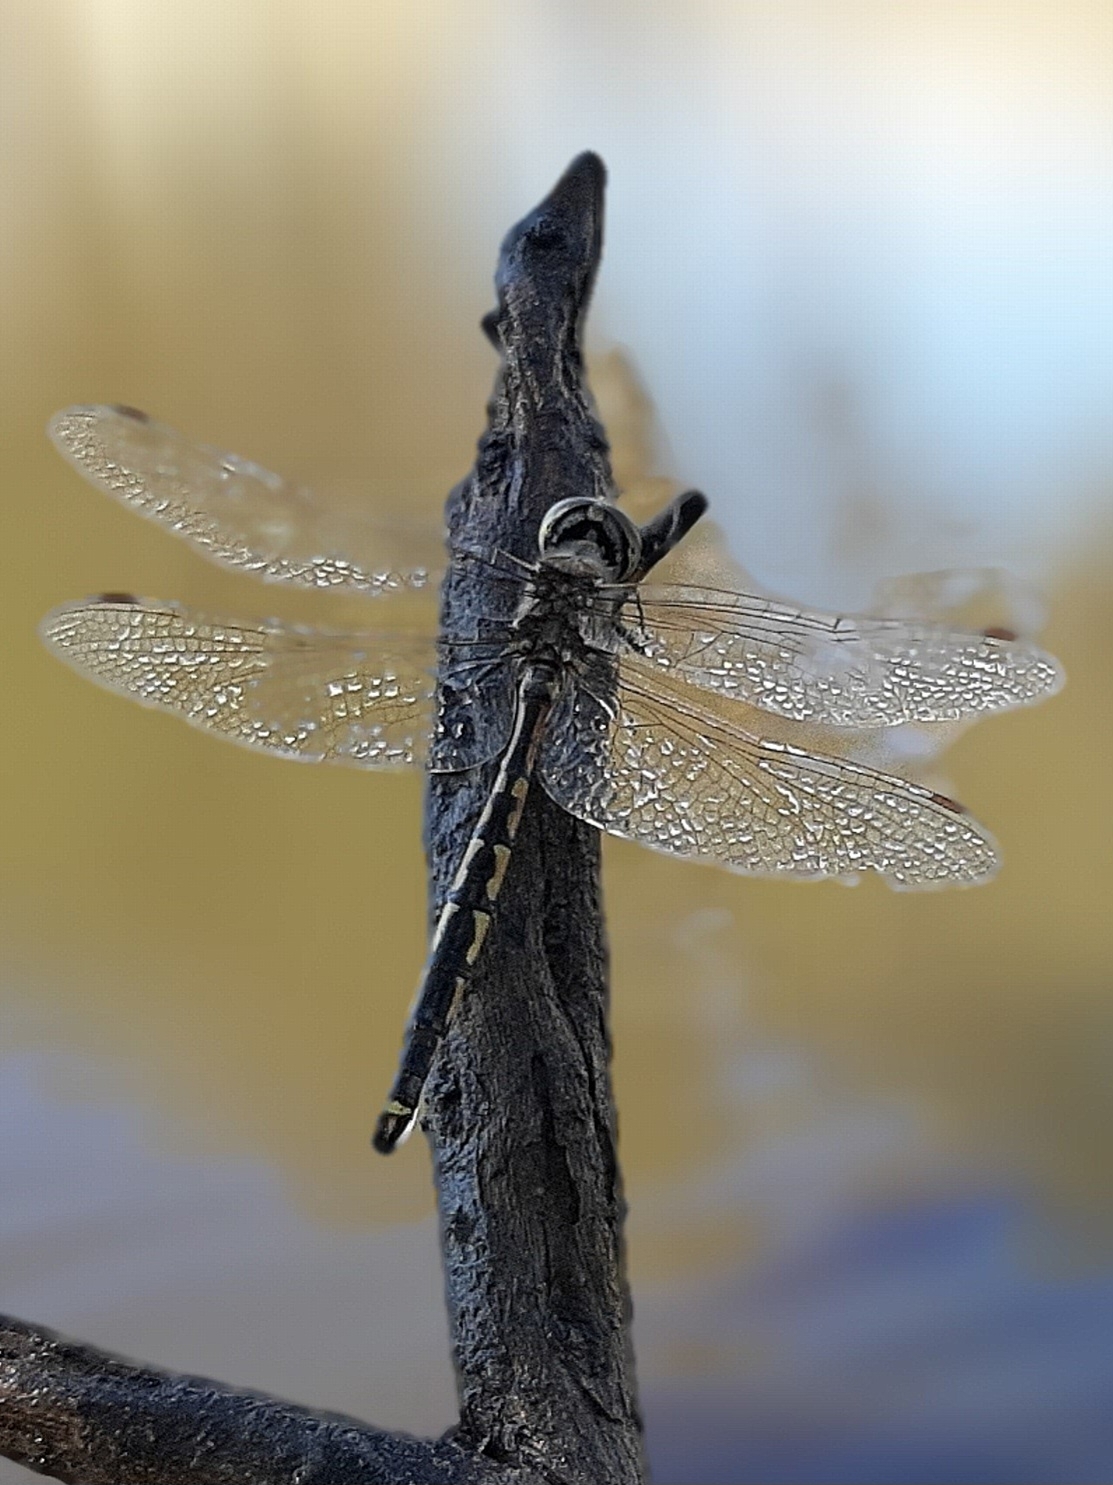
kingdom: Animalia
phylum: Arthropoda
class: Insecta
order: Odonata
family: Corduliidae
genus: Hemicordulia
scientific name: Hemicordulia tau
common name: Tau emerald
